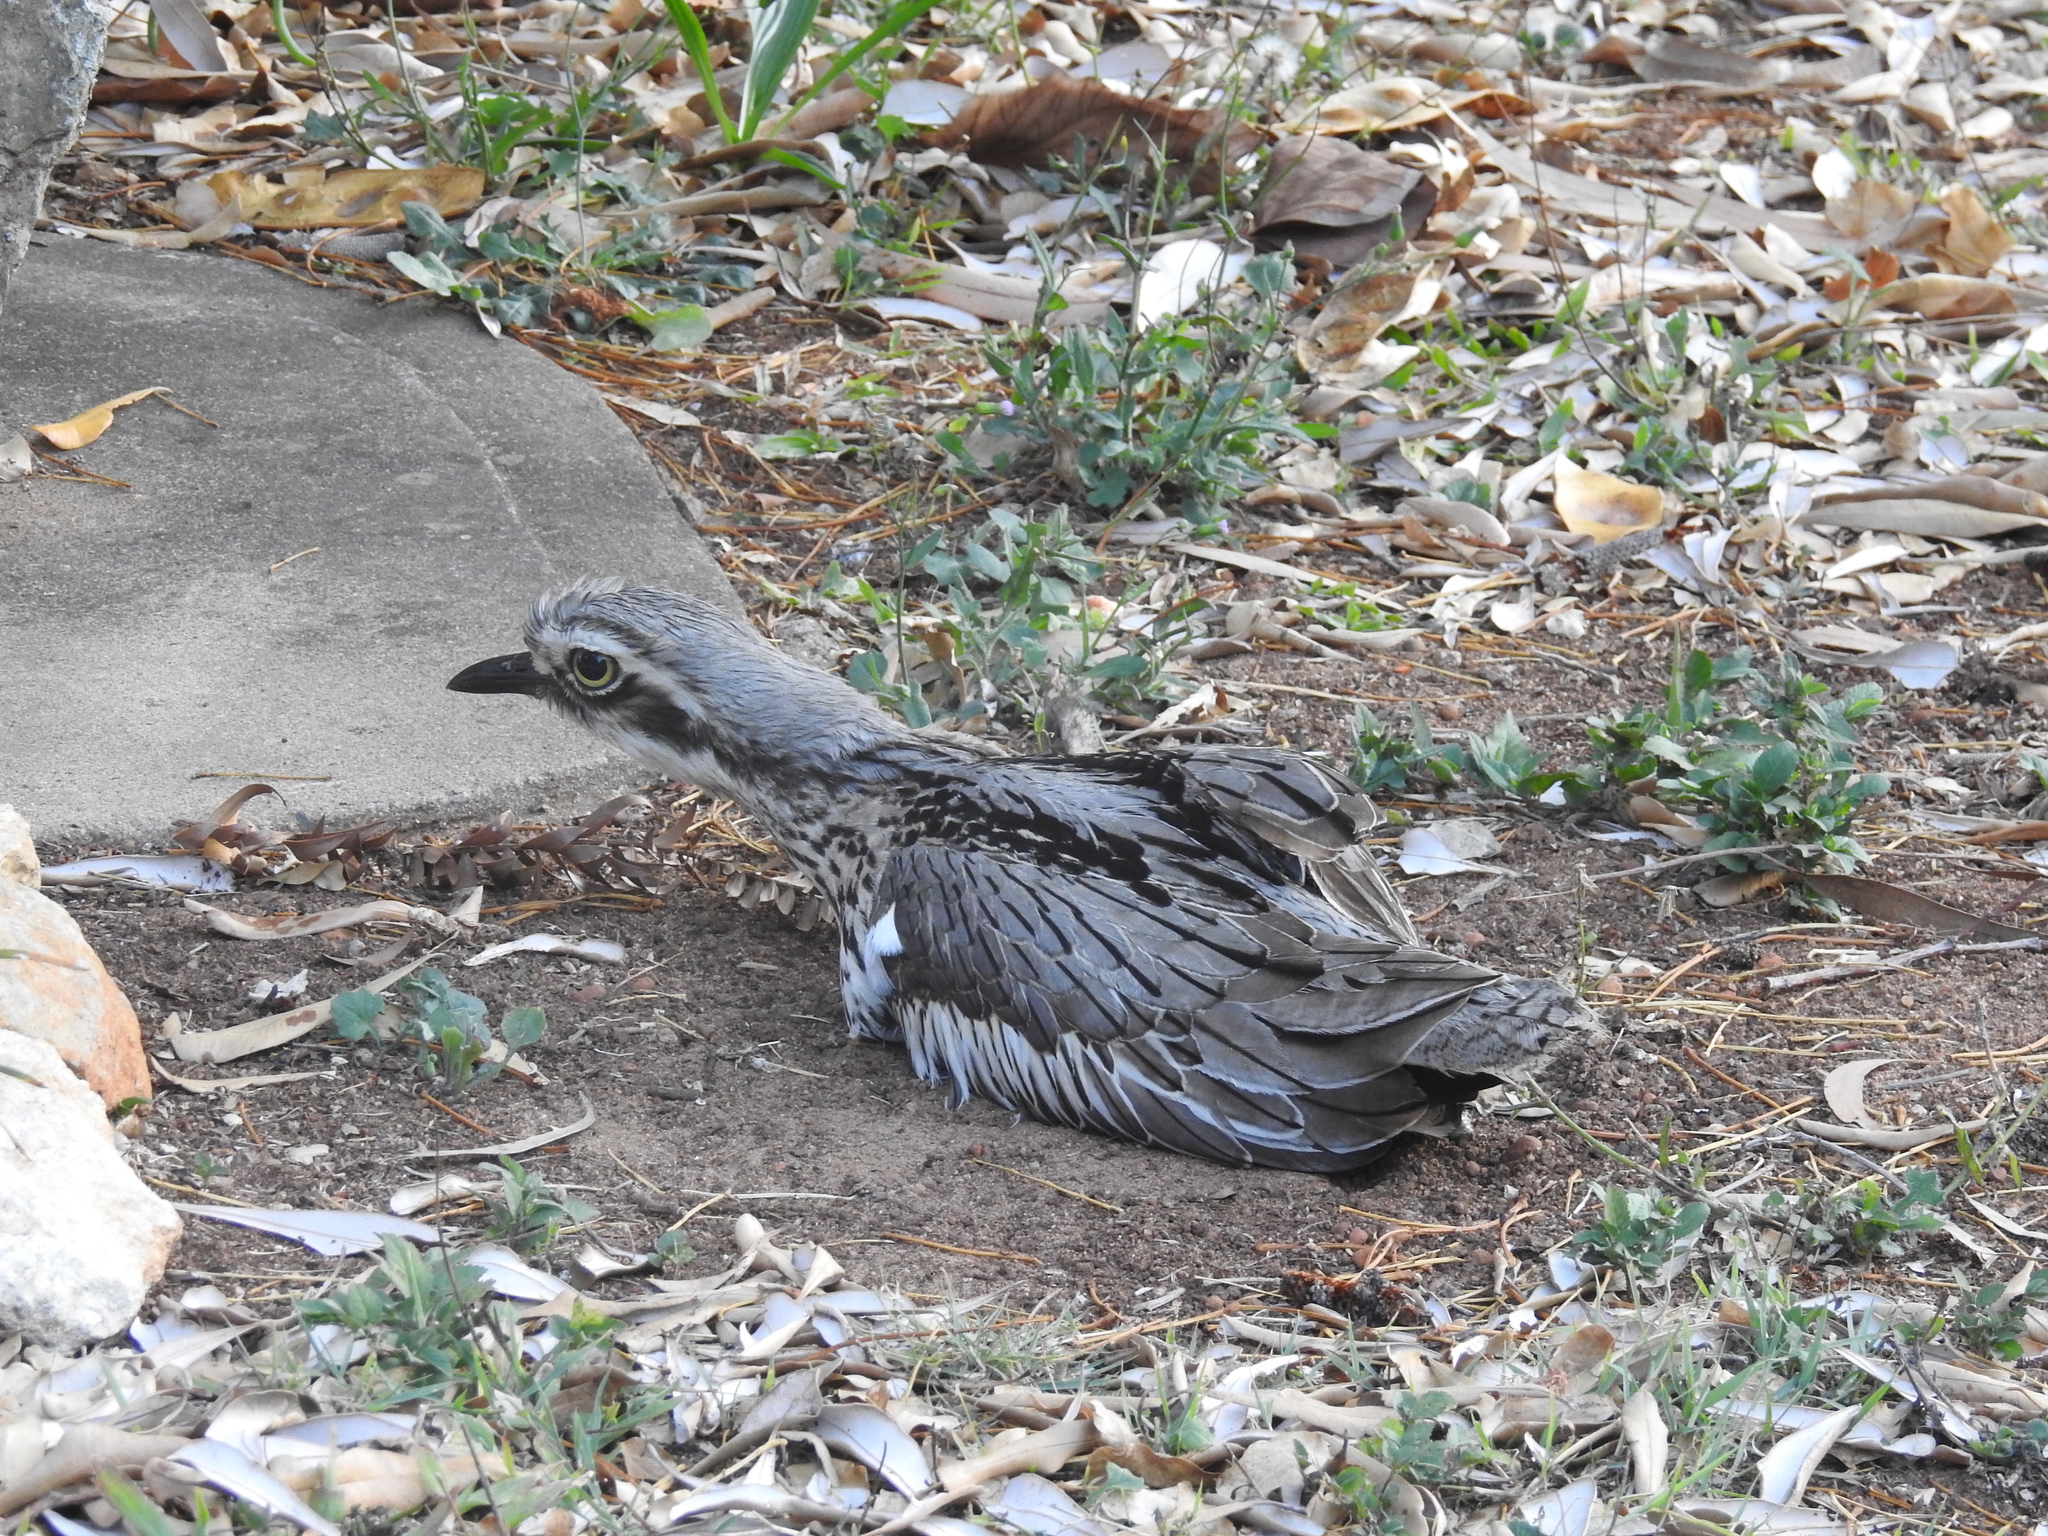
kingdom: Animalia
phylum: Chordata
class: Aves
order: Charadriiformes
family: Burhinidae
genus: Burhinus
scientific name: Burhinus grallarius
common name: Bush stone-curlew
